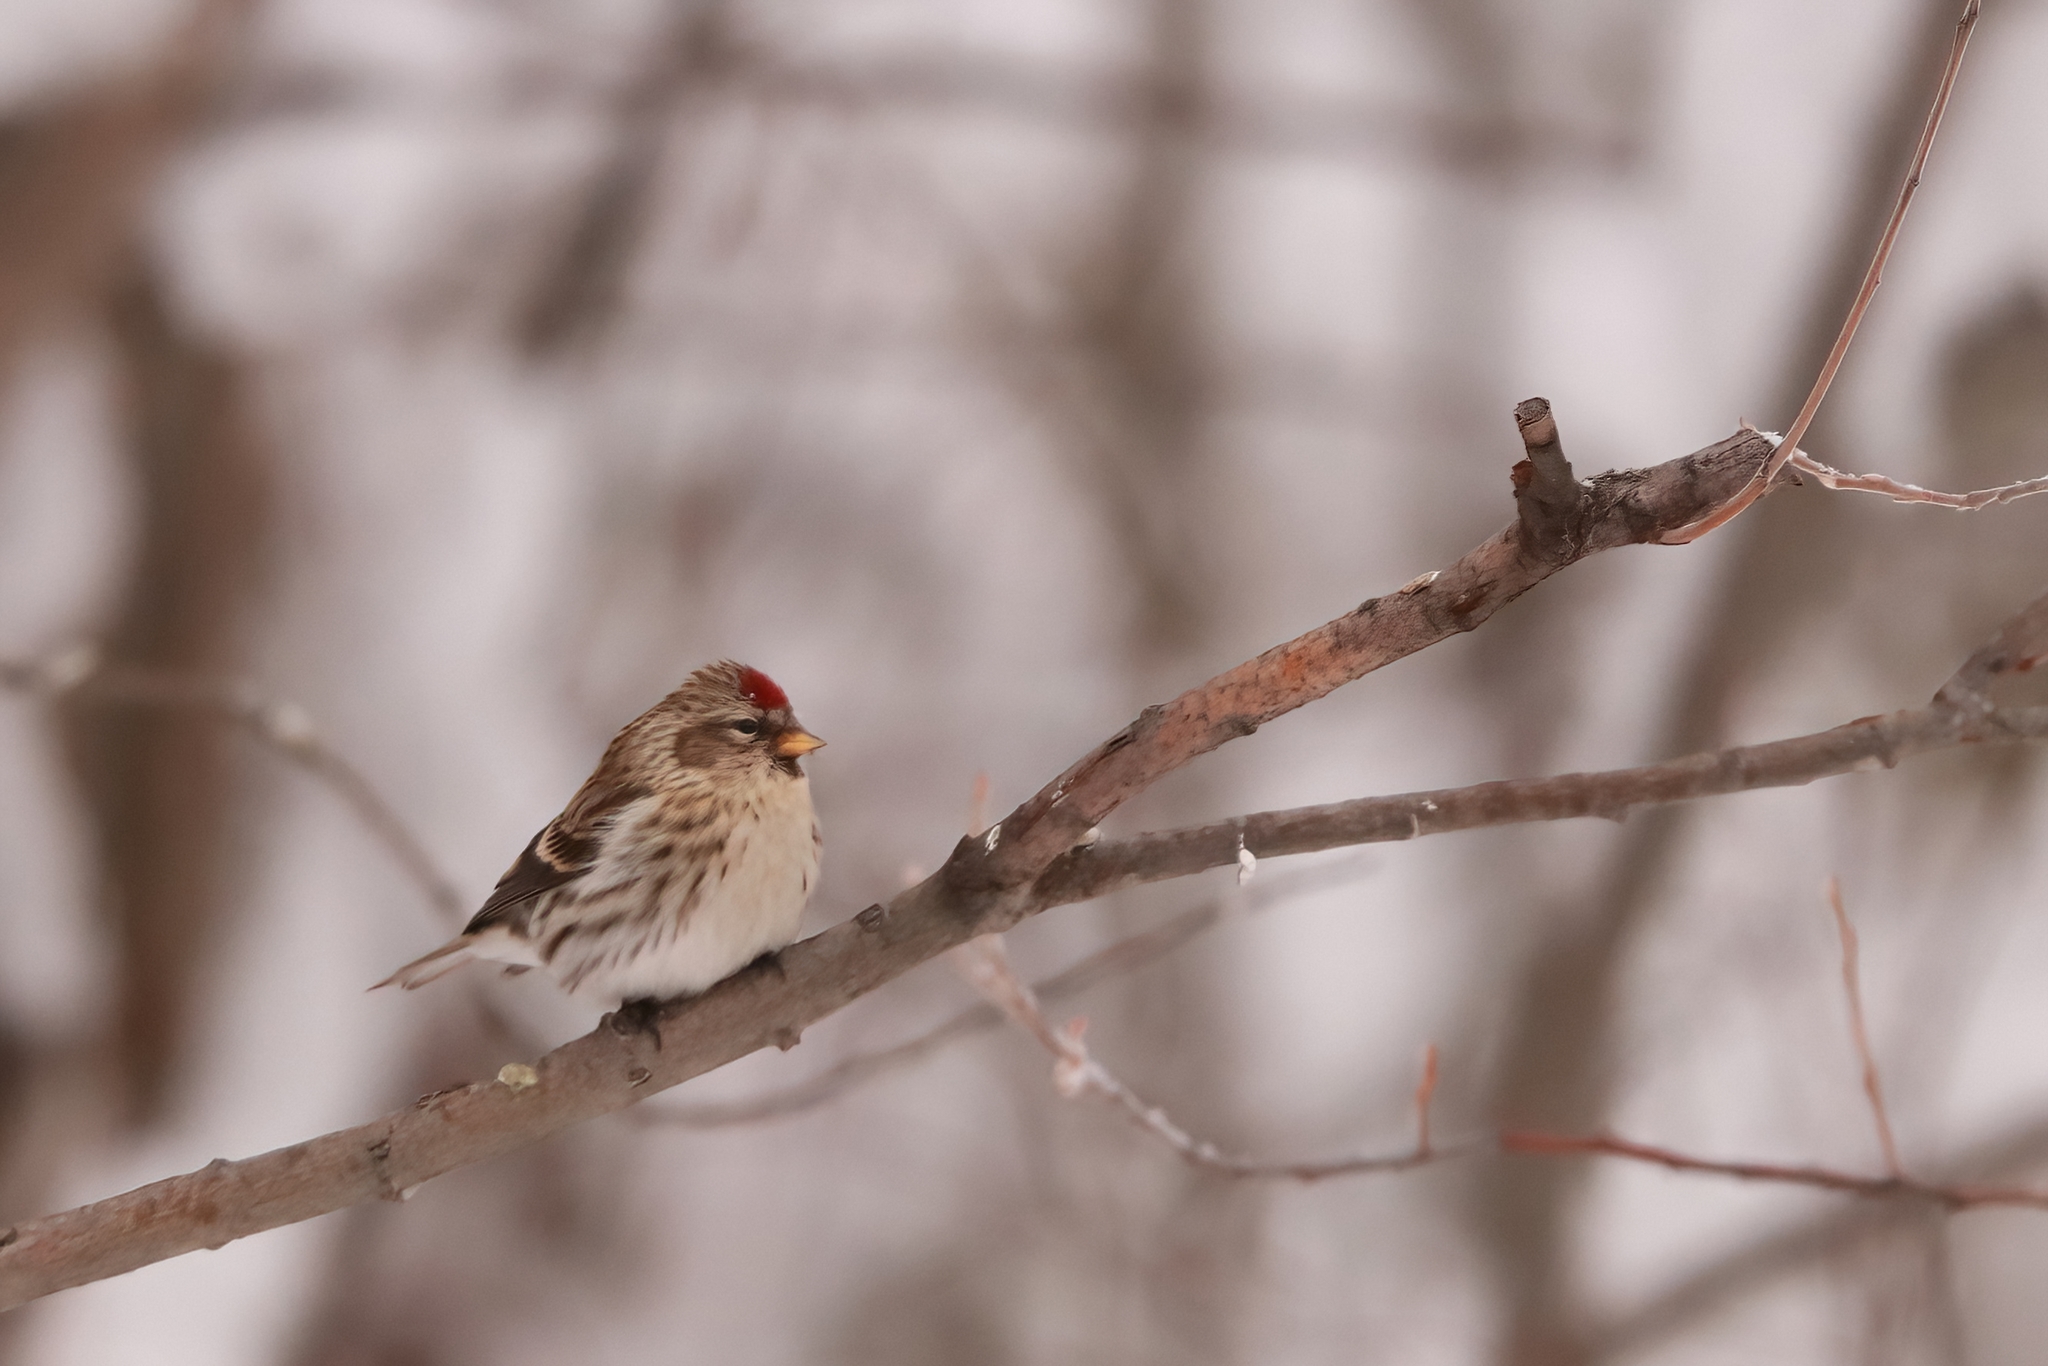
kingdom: Animalia
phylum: Chordata
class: Aves
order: Passeriformes
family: Fringillidae
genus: Acanthis
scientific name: Acanthis flammea
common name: Common redpoll
